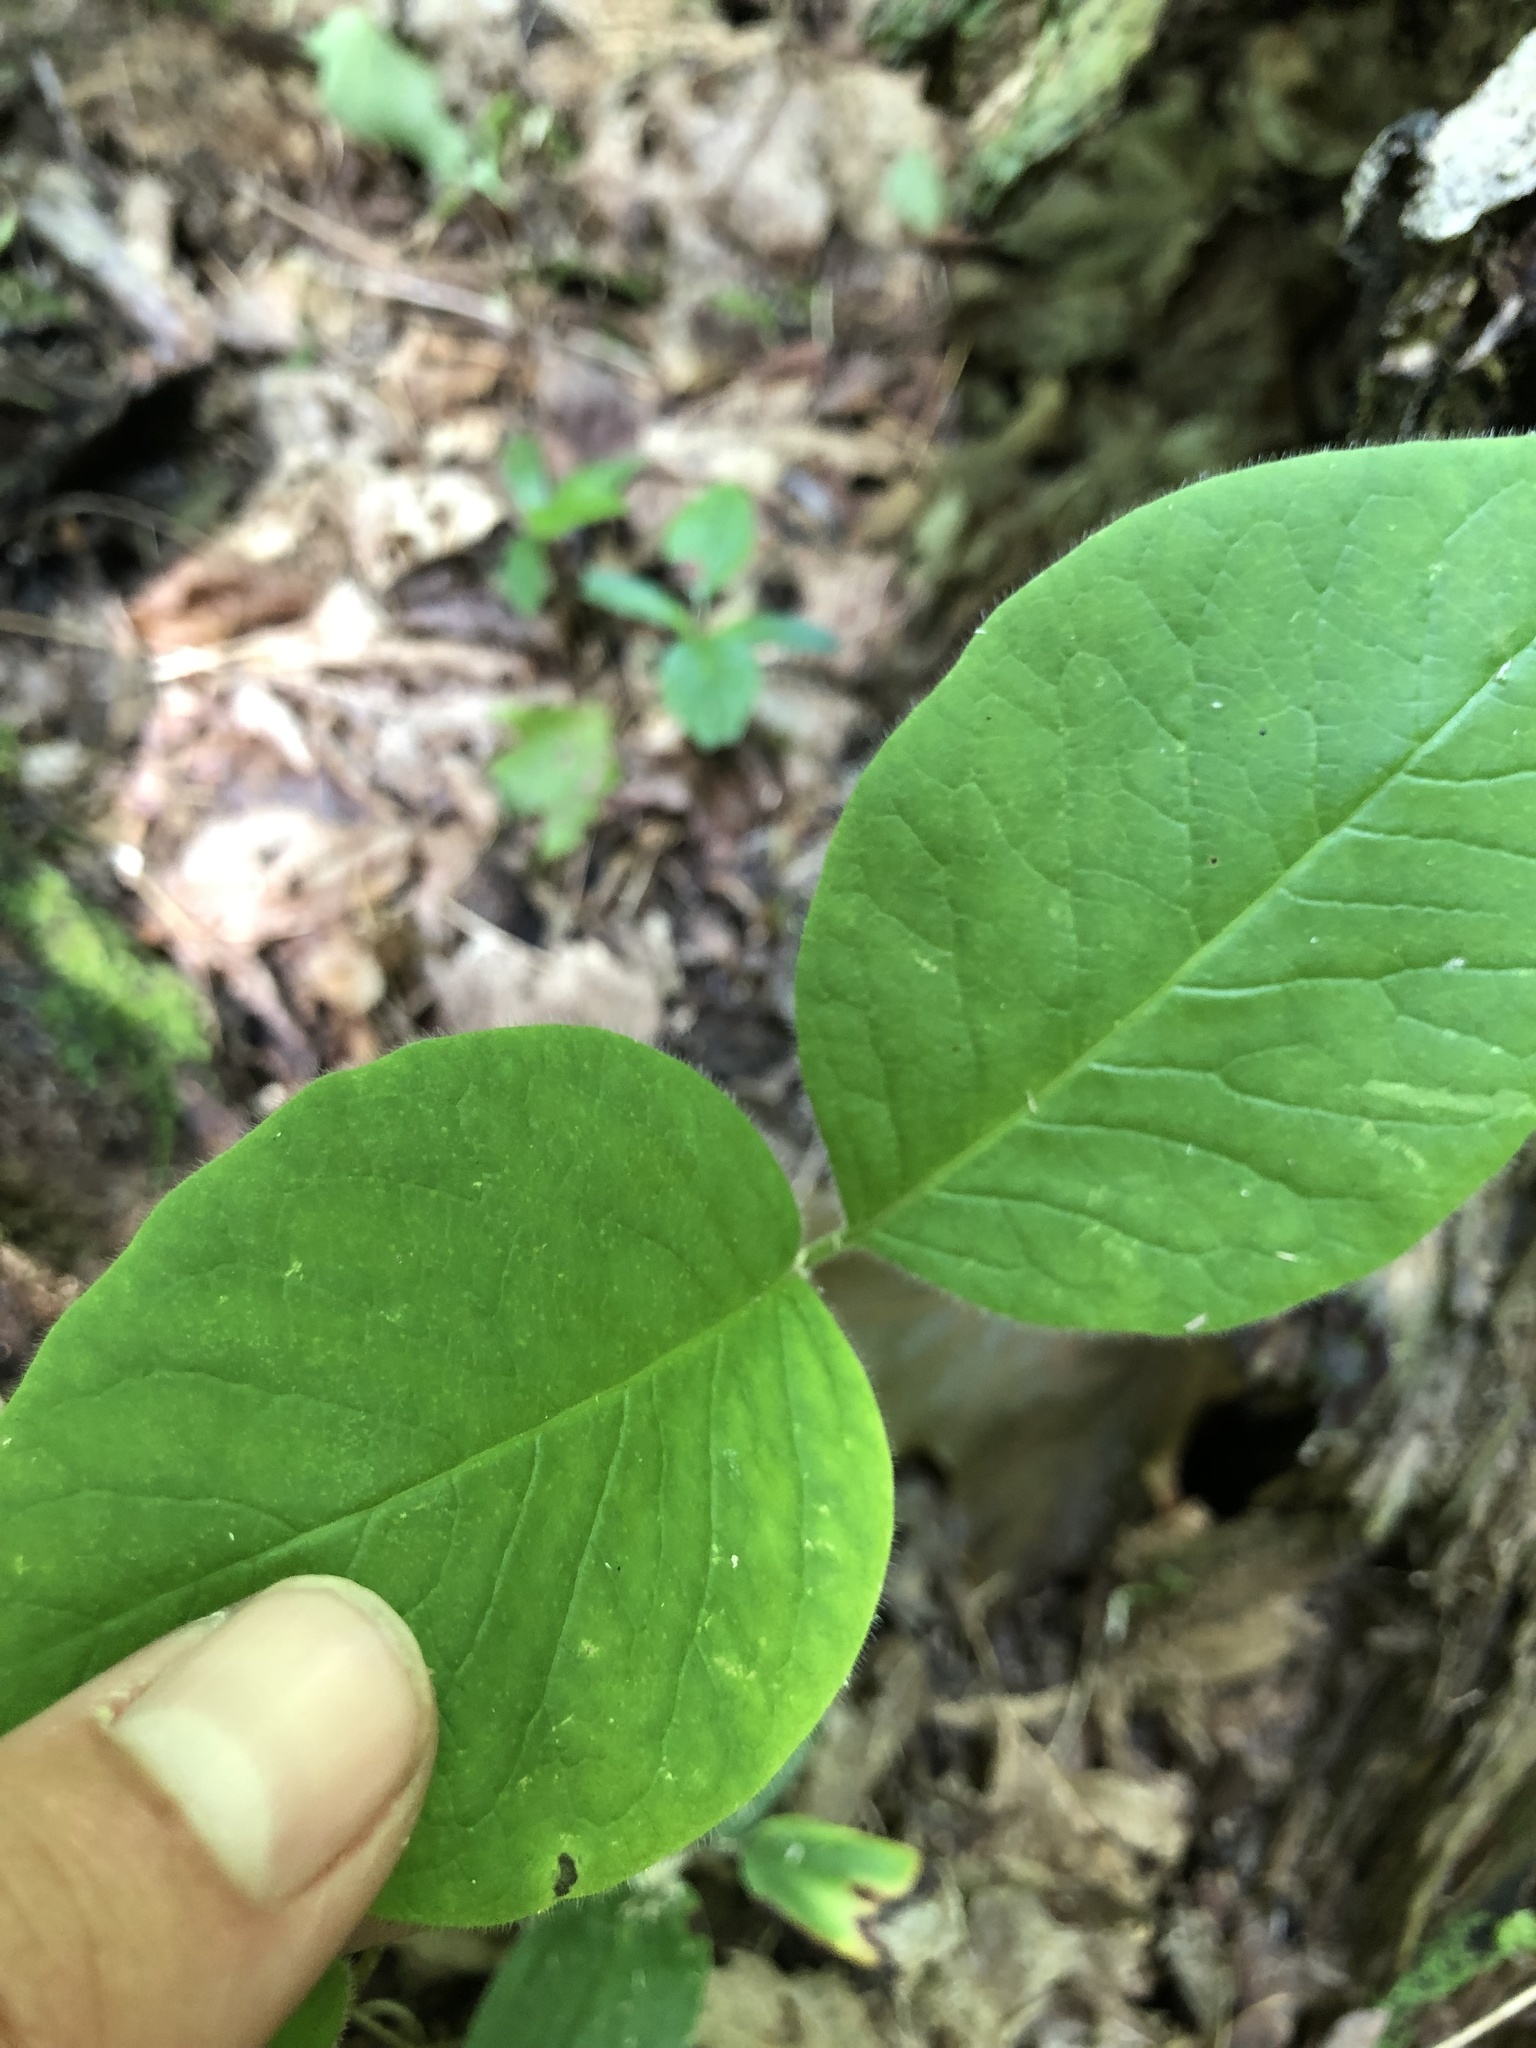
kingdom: Plantae
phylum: Tracheophyta
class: Magnoliopsida
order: Dipsacales
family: Caprifoliaceae
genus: Lonicera
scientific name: Lonicera hirsuta
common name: Hairy honeysuckle
